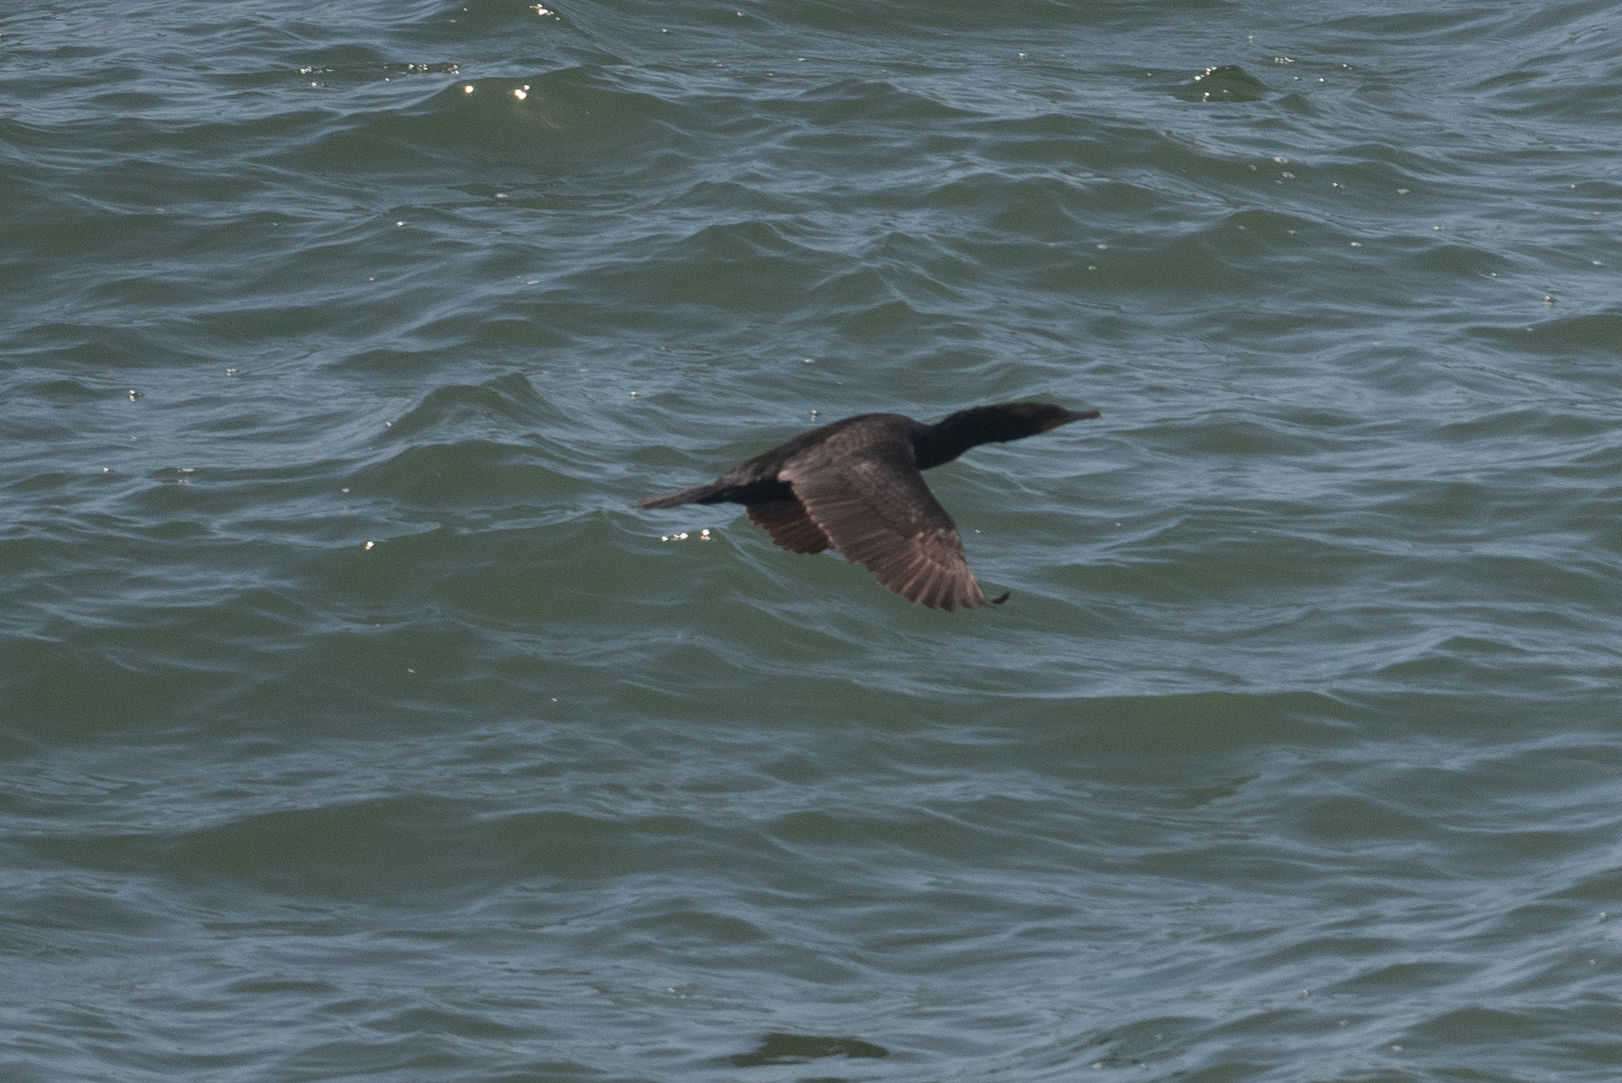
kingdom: Animalia
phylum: Chordata
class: Aves
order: Suliformes
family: Phalacrocoracidae
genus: Phalacrocorax
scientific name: Phalacrocorax auritus
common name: Double-crested cormorant
